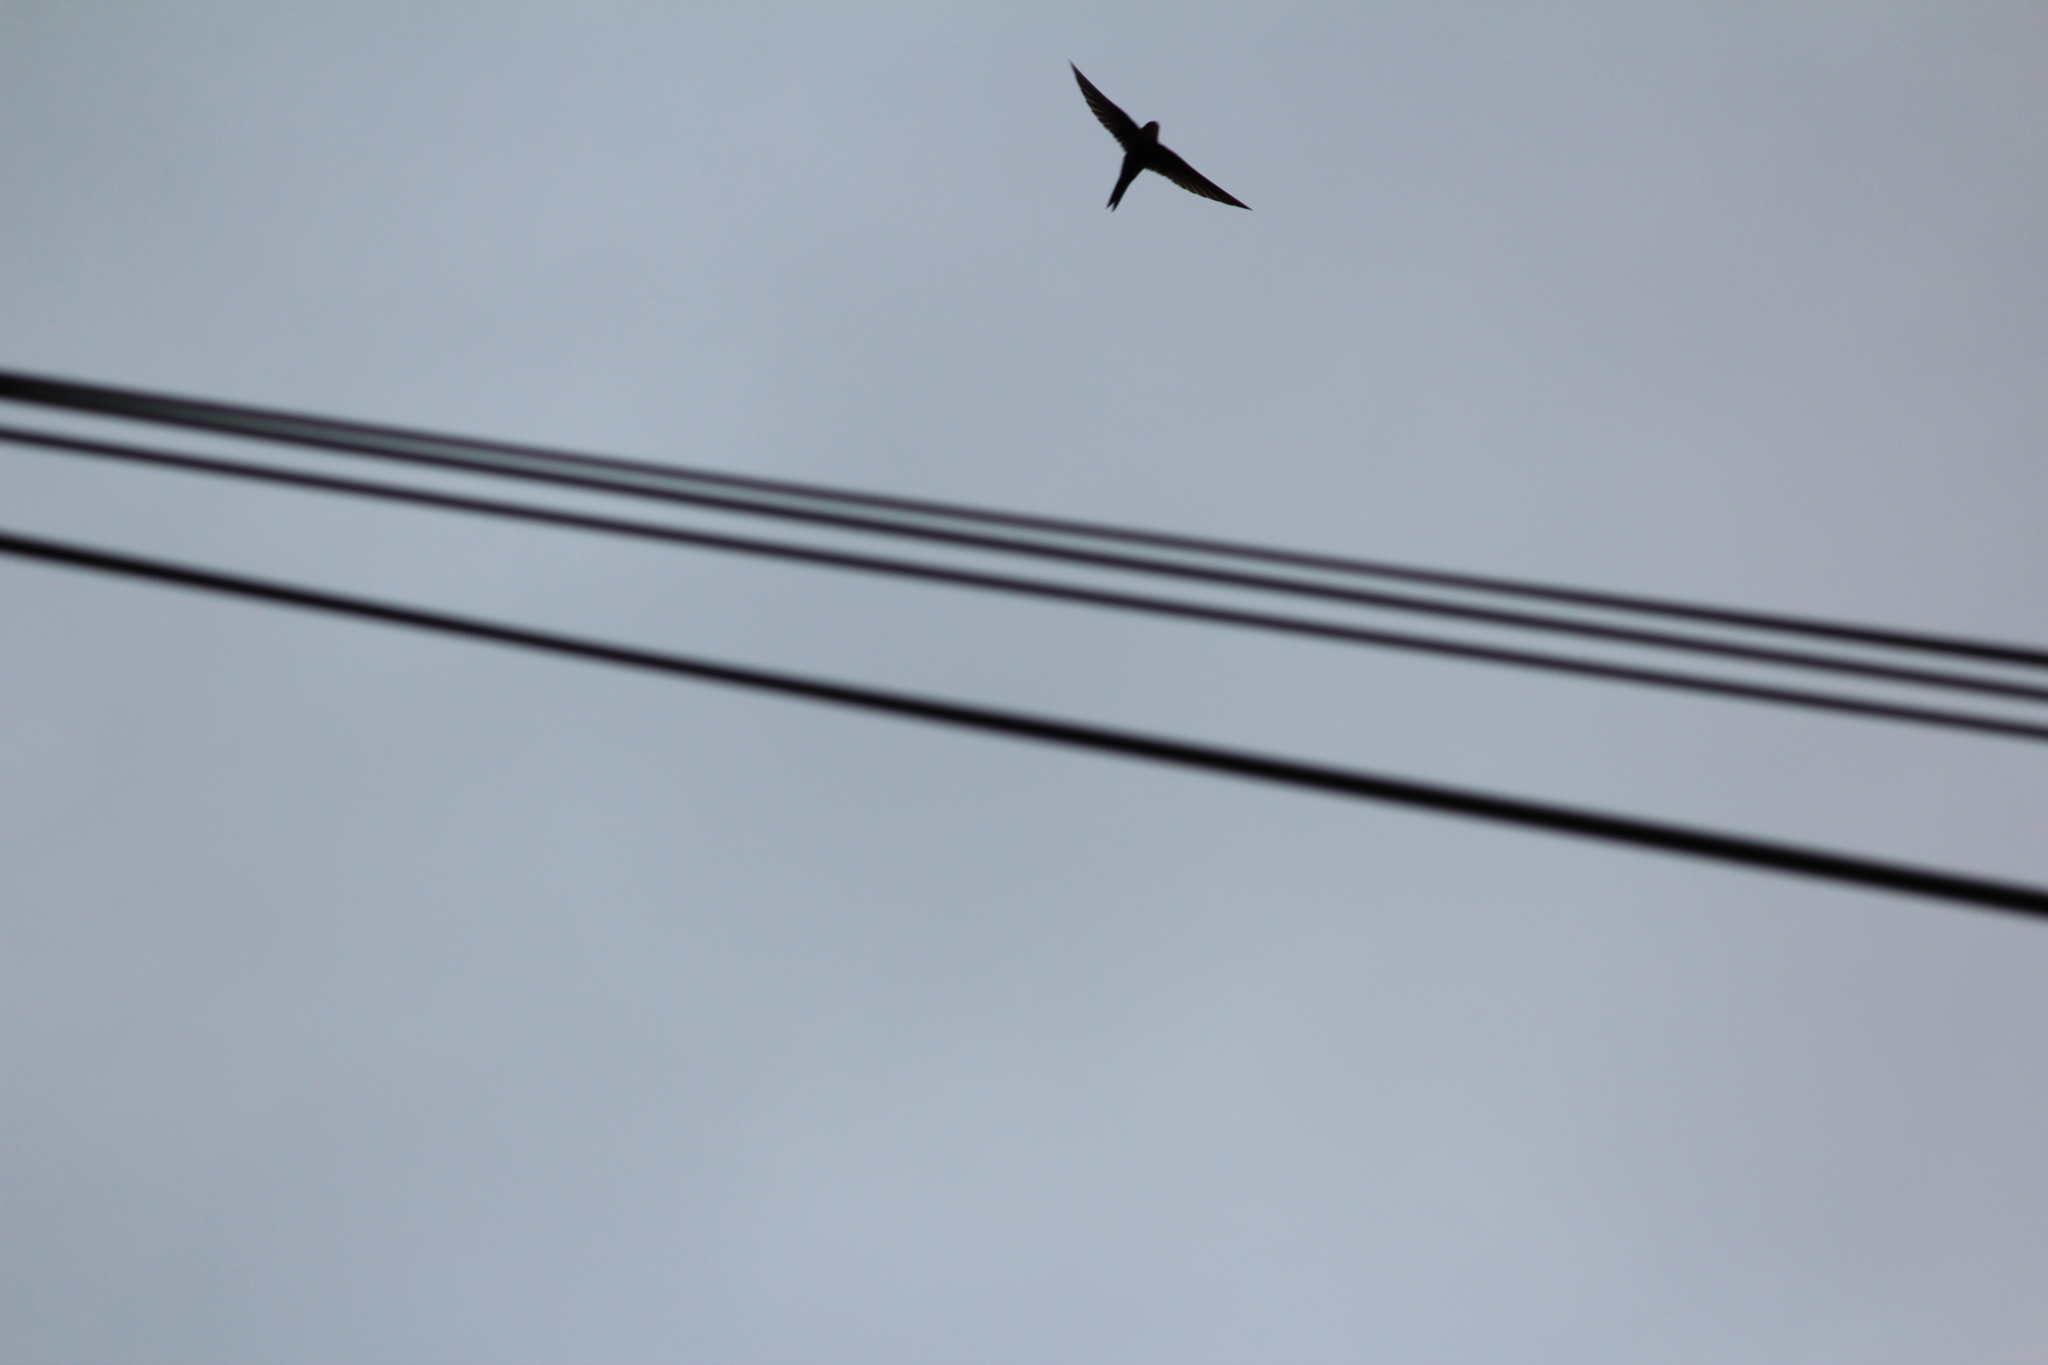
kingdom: Animalia
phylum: Chordata
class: Aves
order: Apodiformes
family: Apodidae
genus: Apus
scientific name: Apus pacificus
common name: Pacific swift
